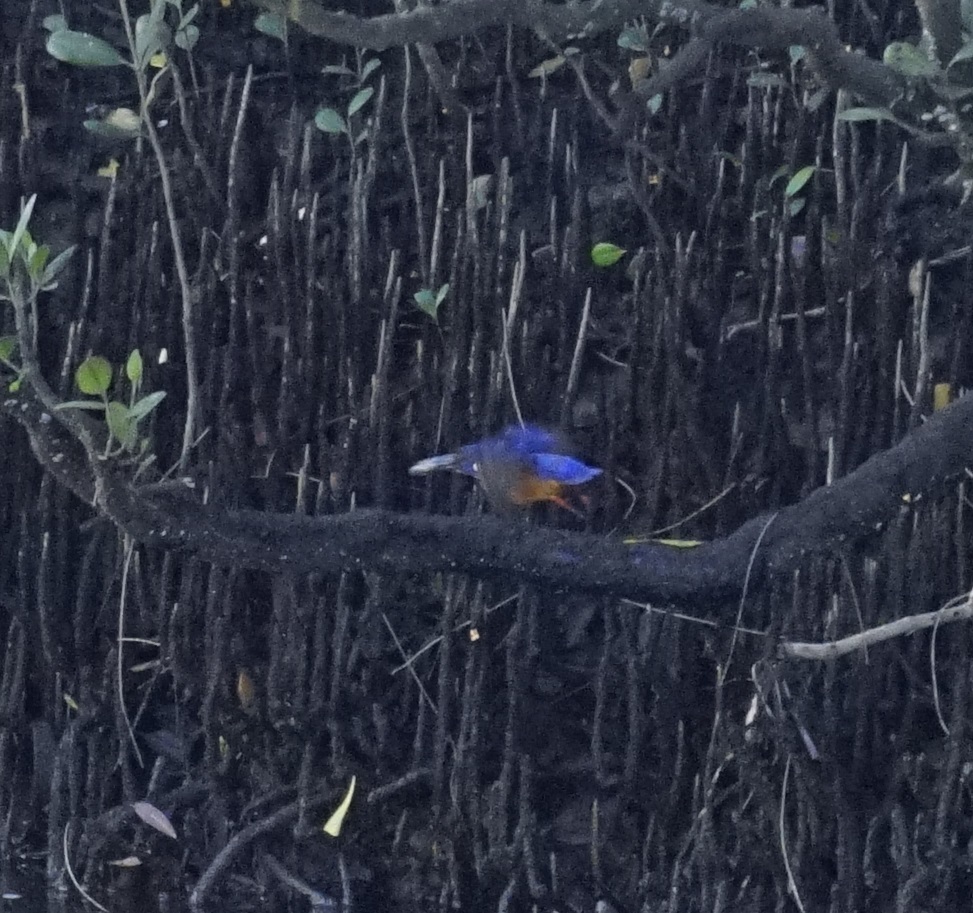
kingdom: Animalia
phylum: Chordata
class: Aves
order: Coraciiformes
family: Alcedinidae
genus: Ceyx
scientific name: Ceyx azureus
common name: Azure kingfisher
